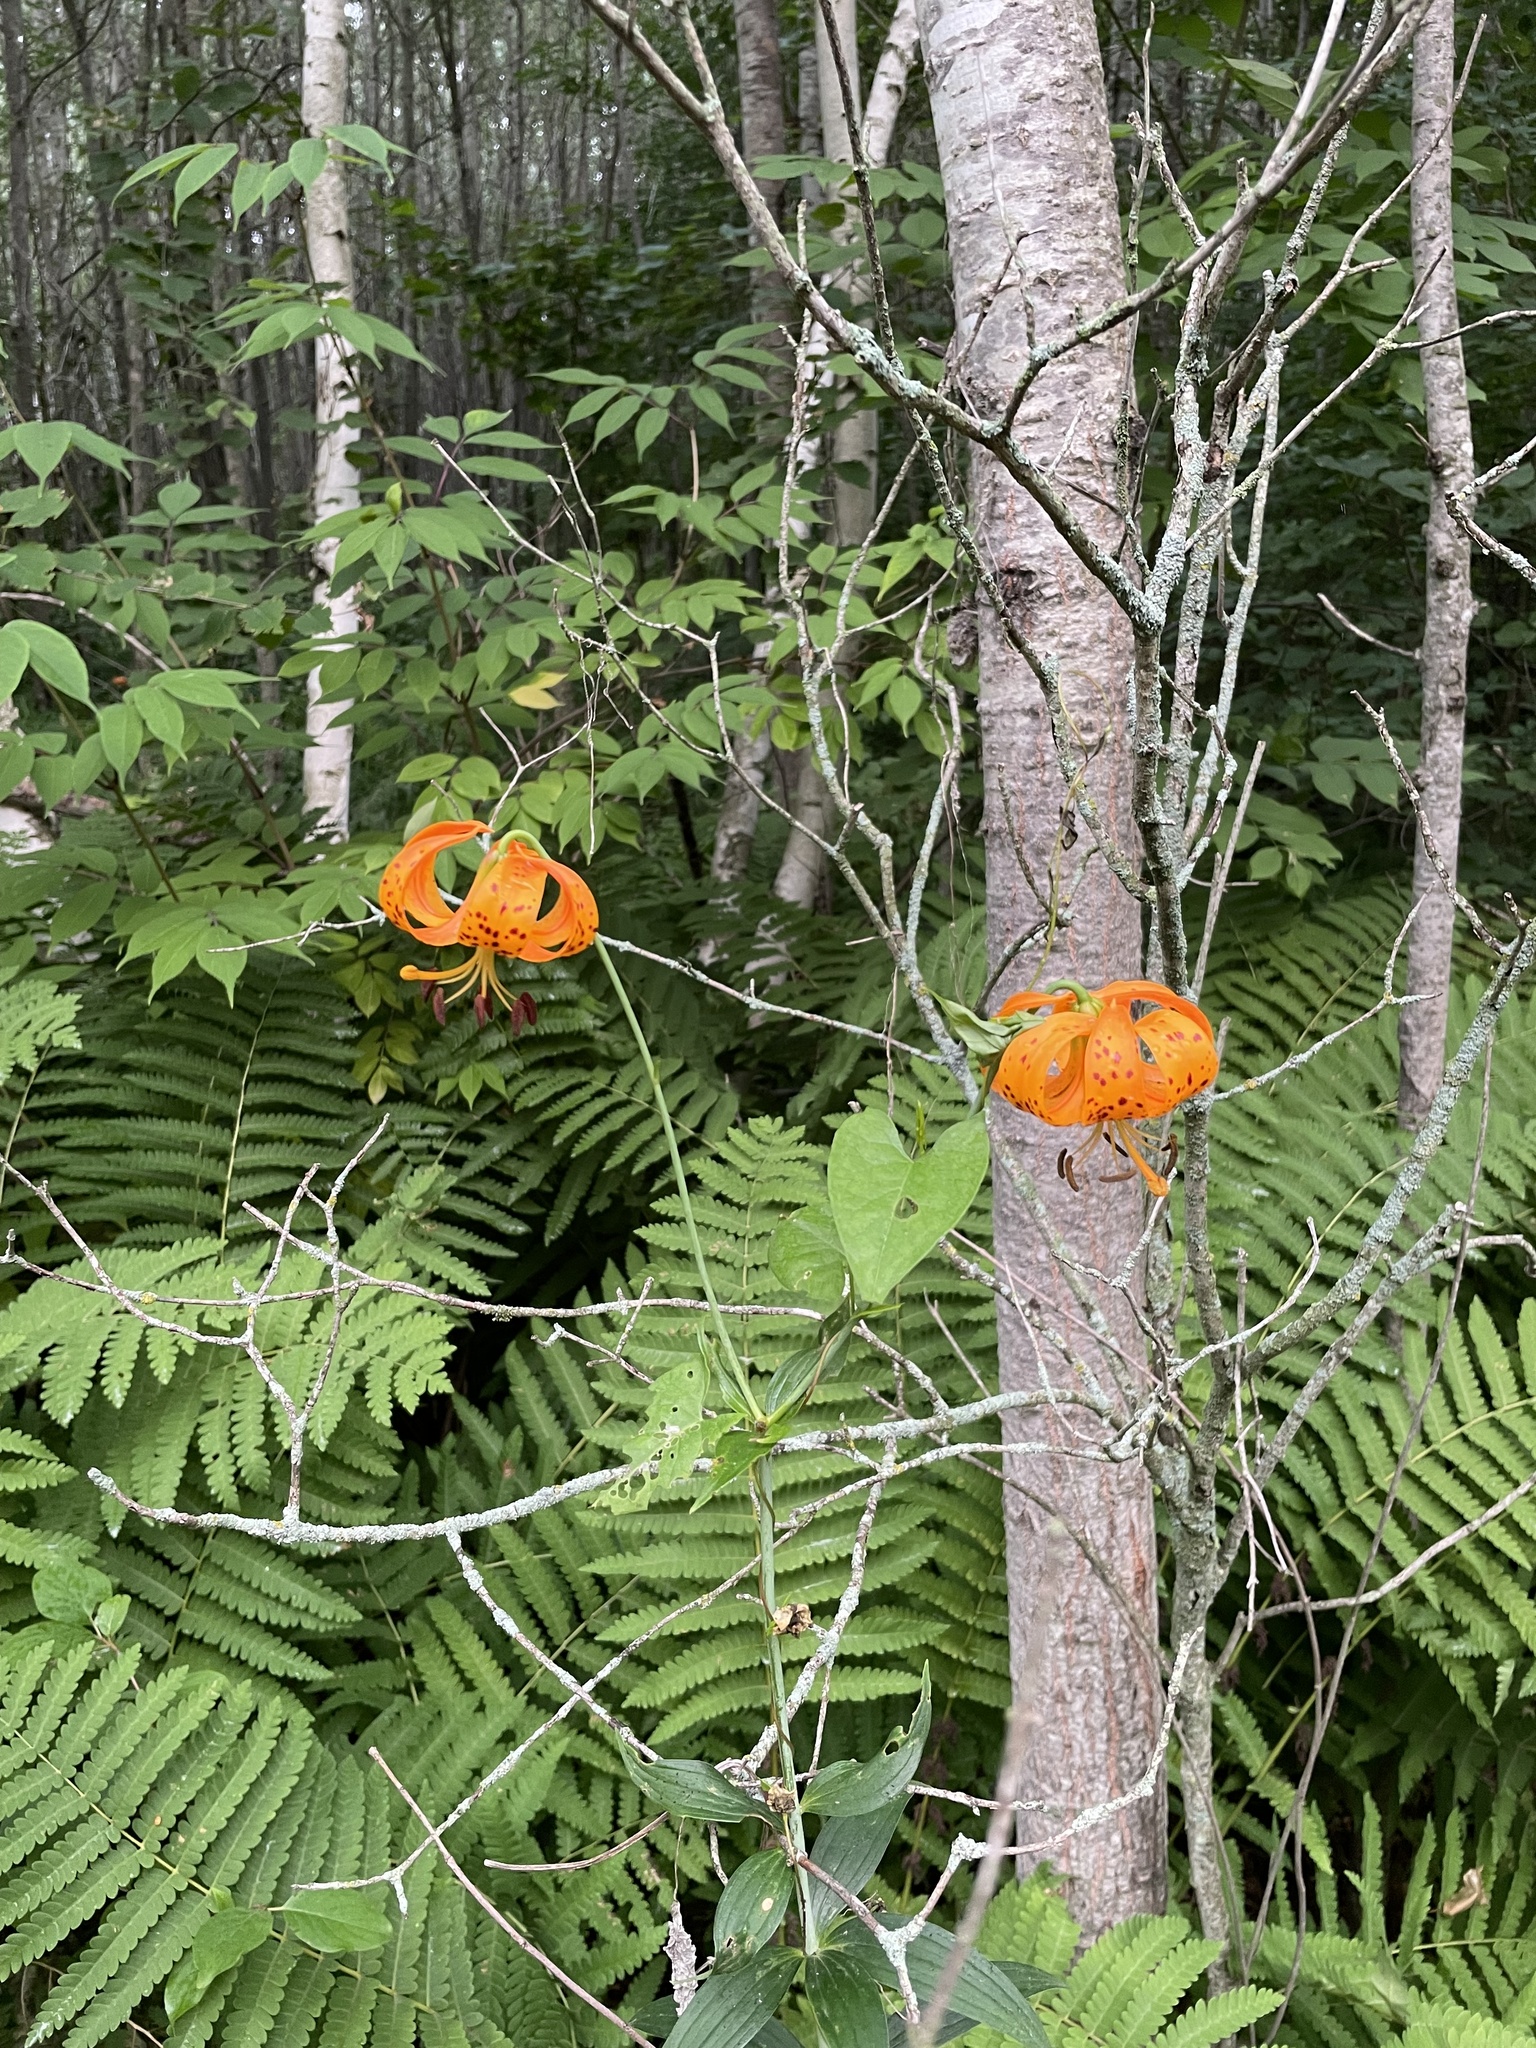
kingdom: Plantae
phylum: Tracheophyta
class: Liliopsida
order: Liliales
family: Liliaceae
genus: Lilium
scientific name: Lilium michiganense
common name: Michigan lily
